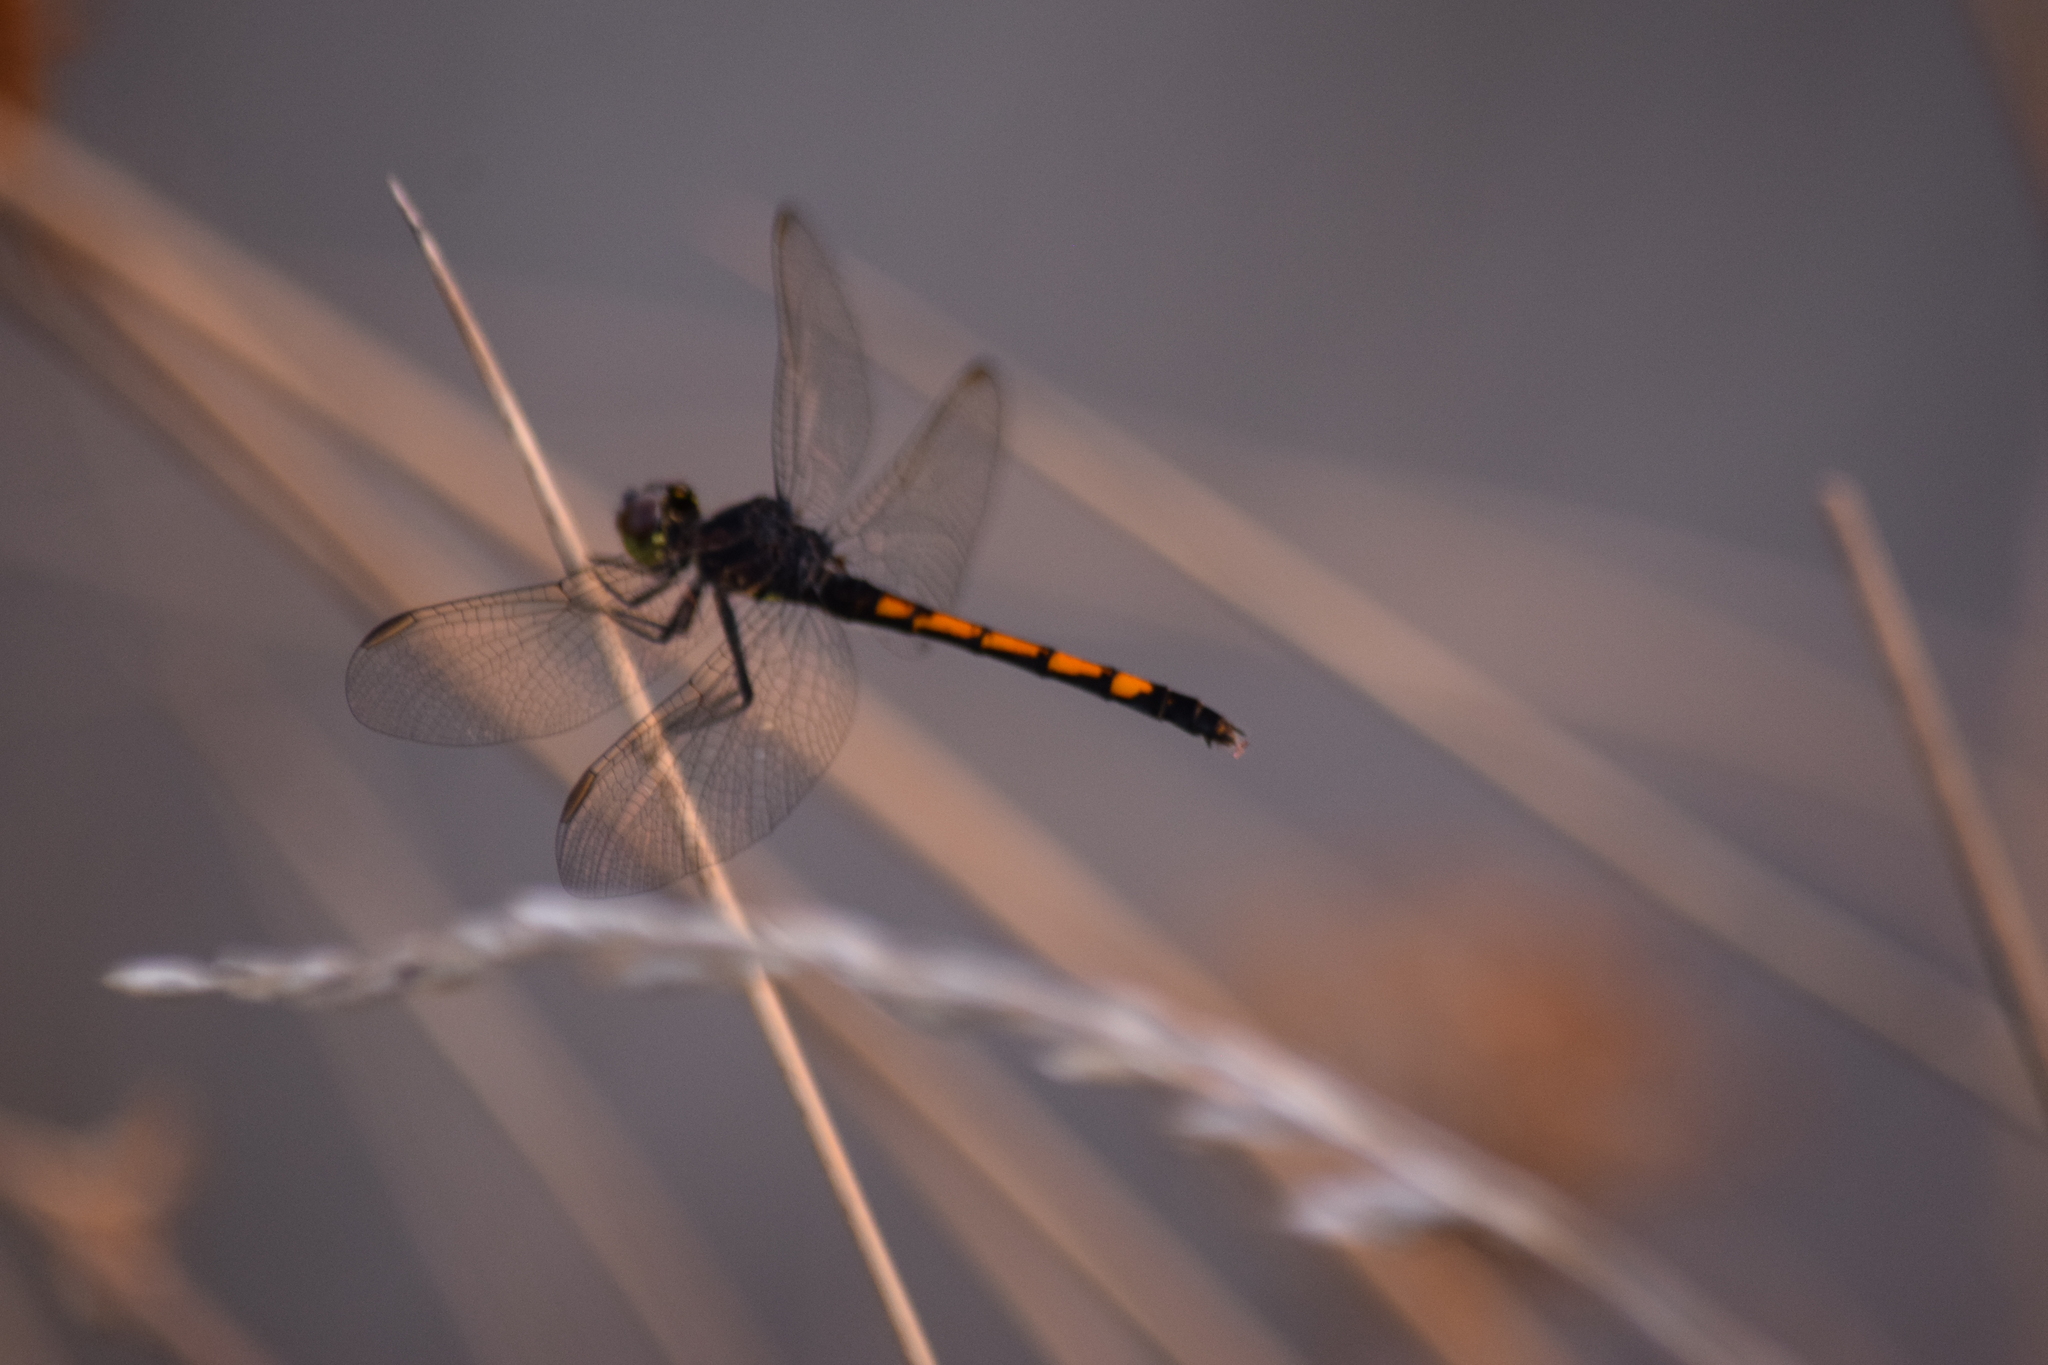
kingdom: Animalia
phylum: Arthropoda
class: Insecta
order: Odonata
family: Libellulidae
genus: Erythrodiplax
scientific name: Erythrodiplax berenice
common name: Seaside dragonlet
